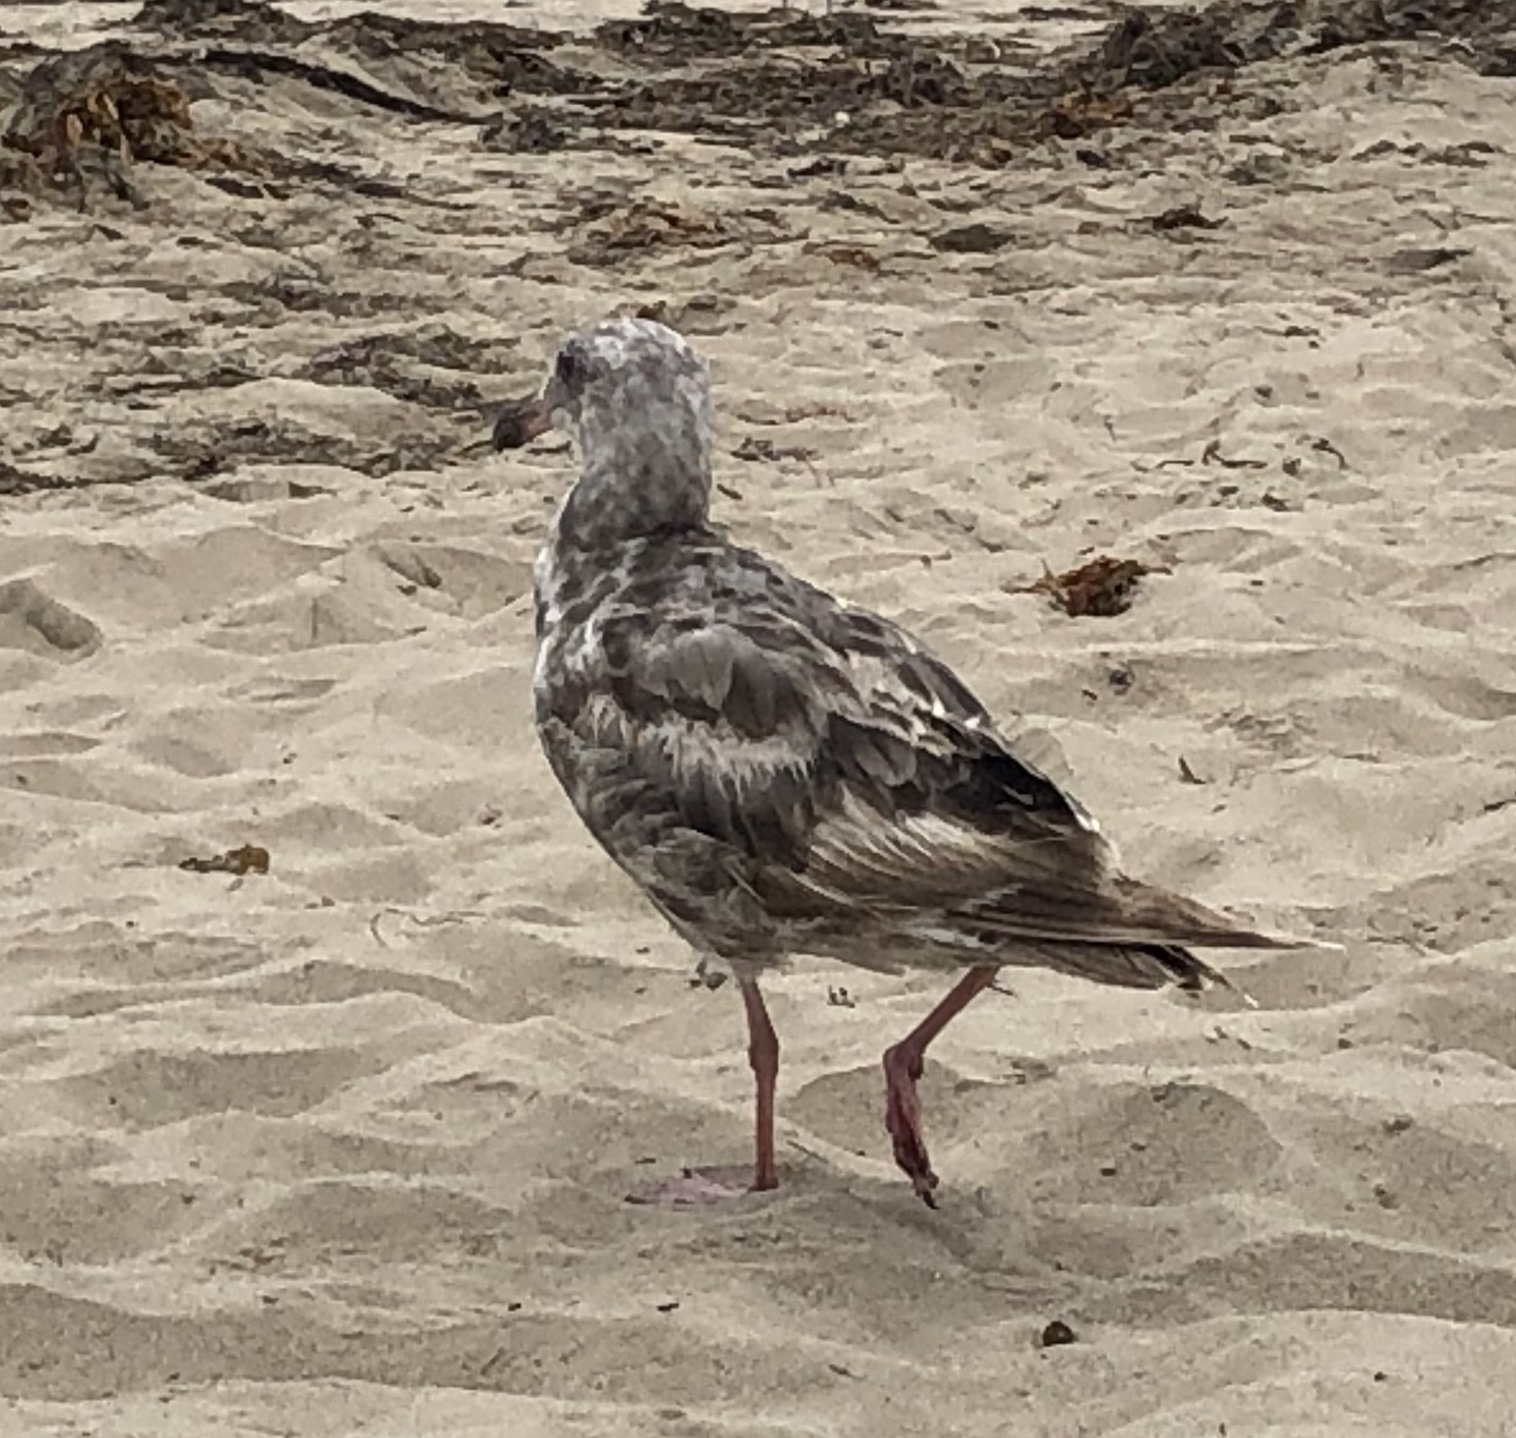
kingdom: Animalia
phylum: Chordata
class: Aves
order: Charadriiformes
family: Laridae
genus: Larus
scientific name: Larus occidentalis
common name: Western gull
